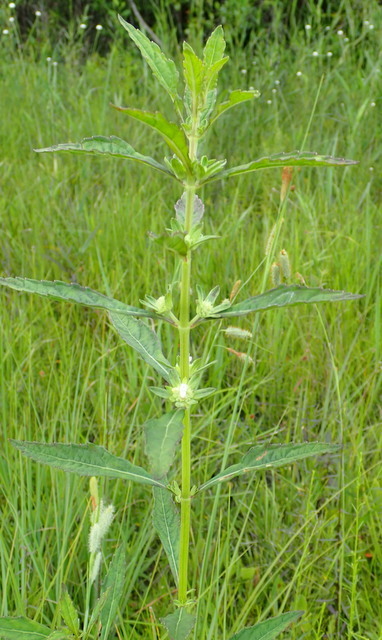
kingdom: Plantae
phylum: Tracheophyta
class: Magnoliopsida
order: Lamiales
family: Lamiaceae
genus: Hyptis
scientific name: Hyptis alata
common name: Cluster bush-mint
